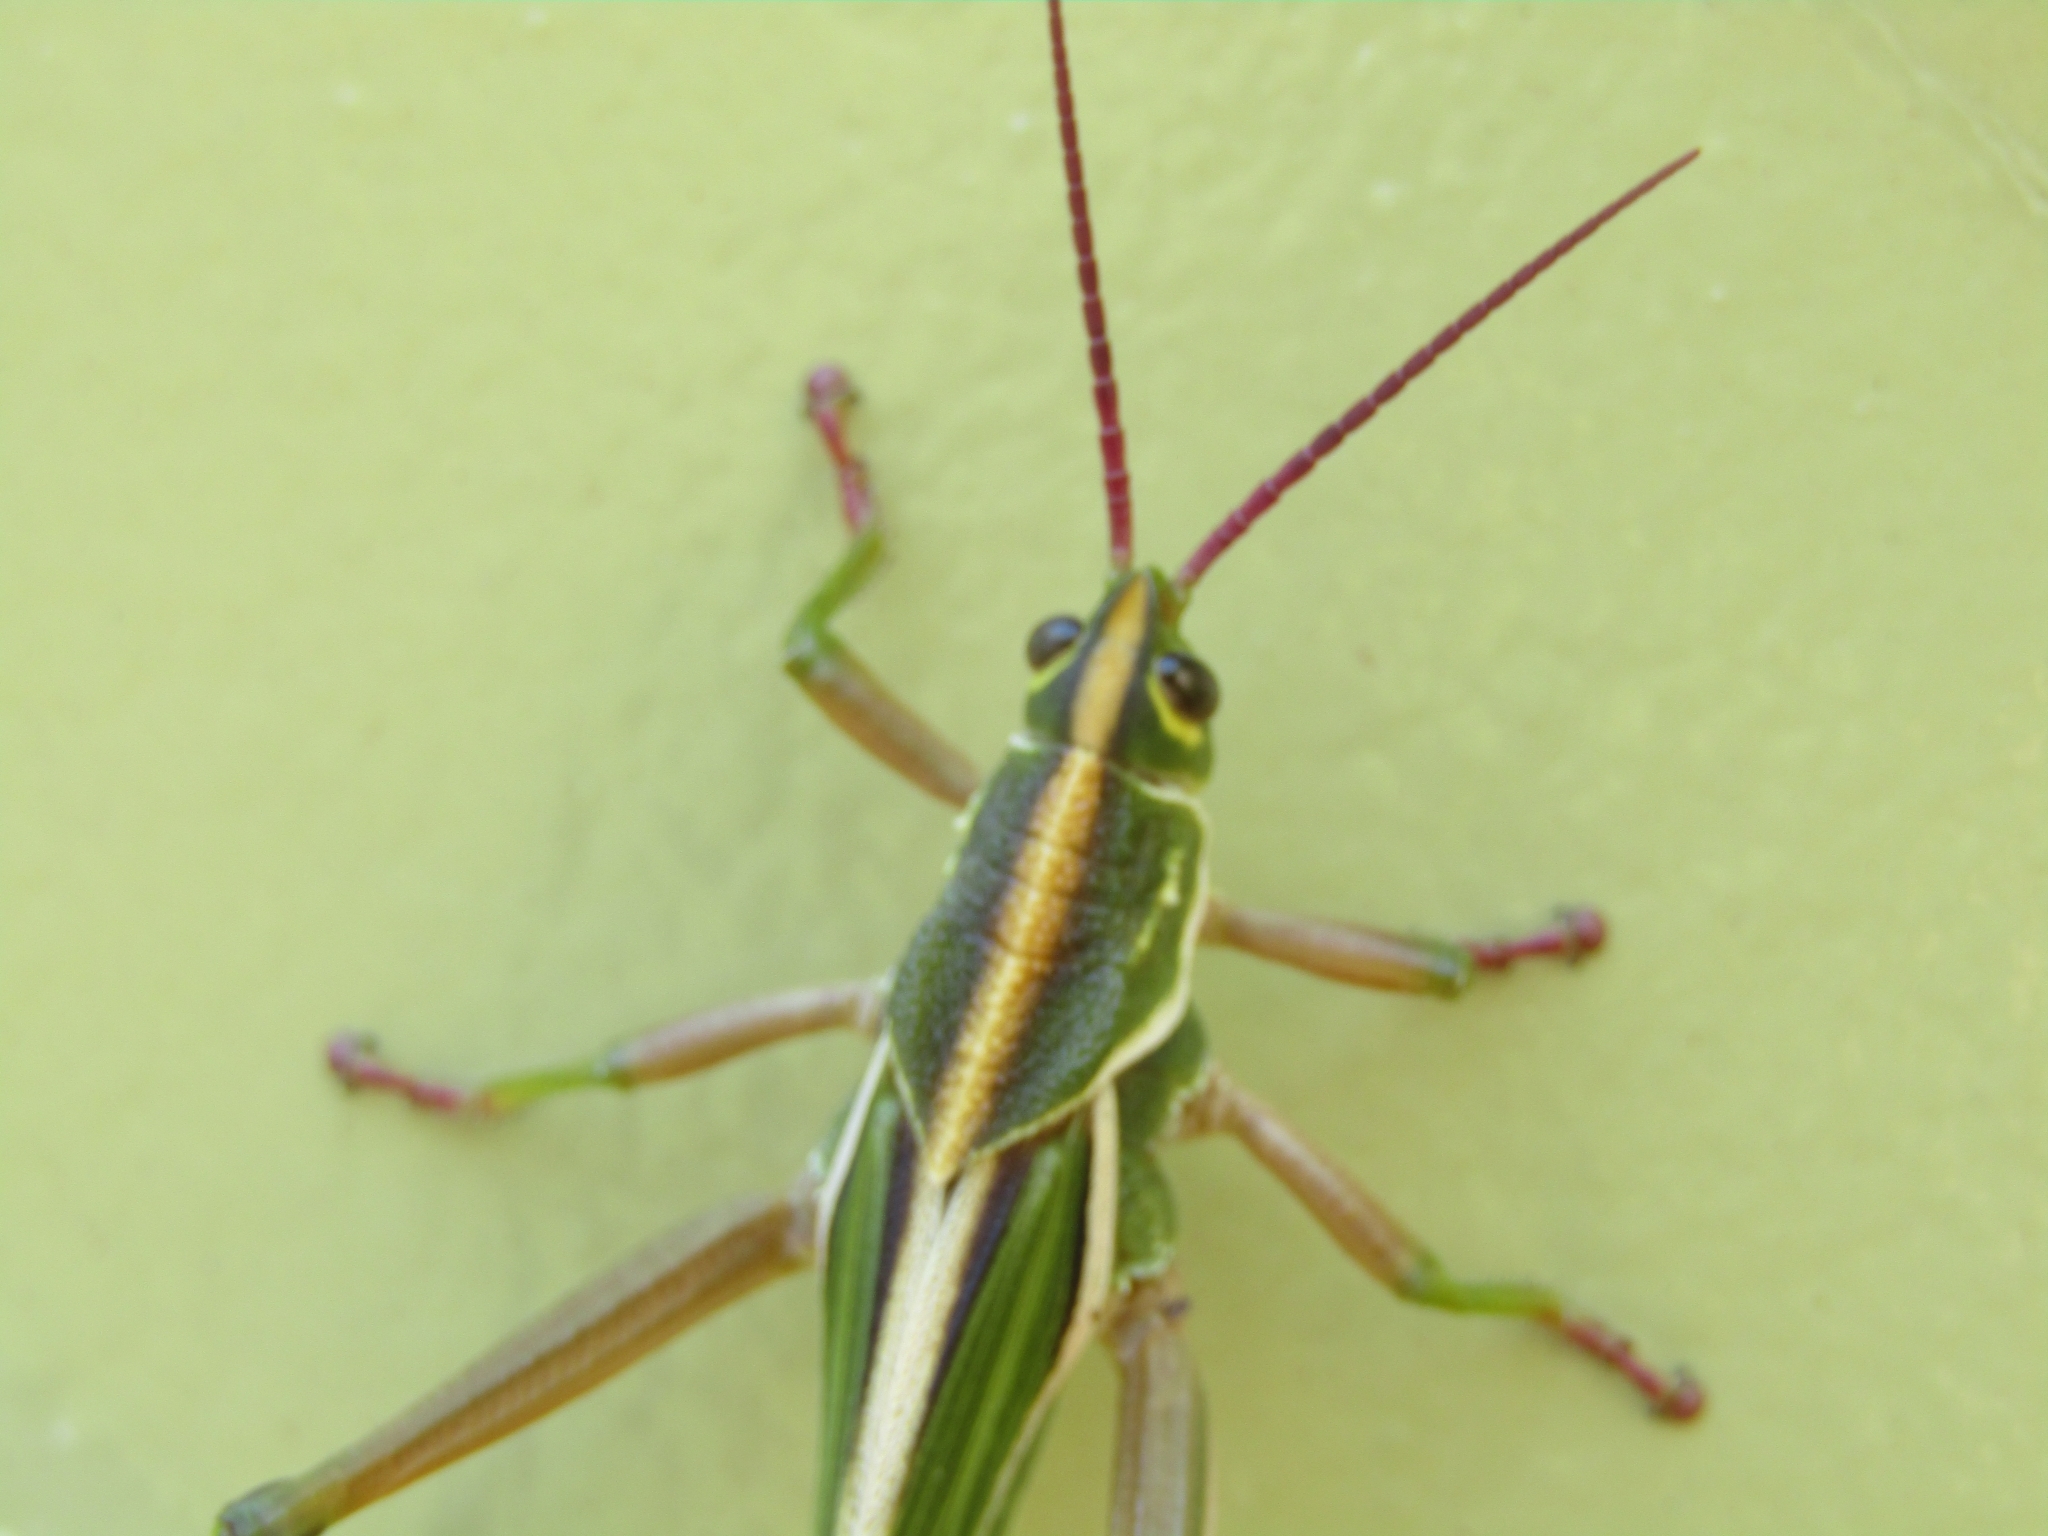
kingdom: Animalia
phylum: Arthropoda
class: Insecta
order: Orthoptera
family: Romaleidae
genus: Staleochlora
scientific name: Staleochlora viridicata
